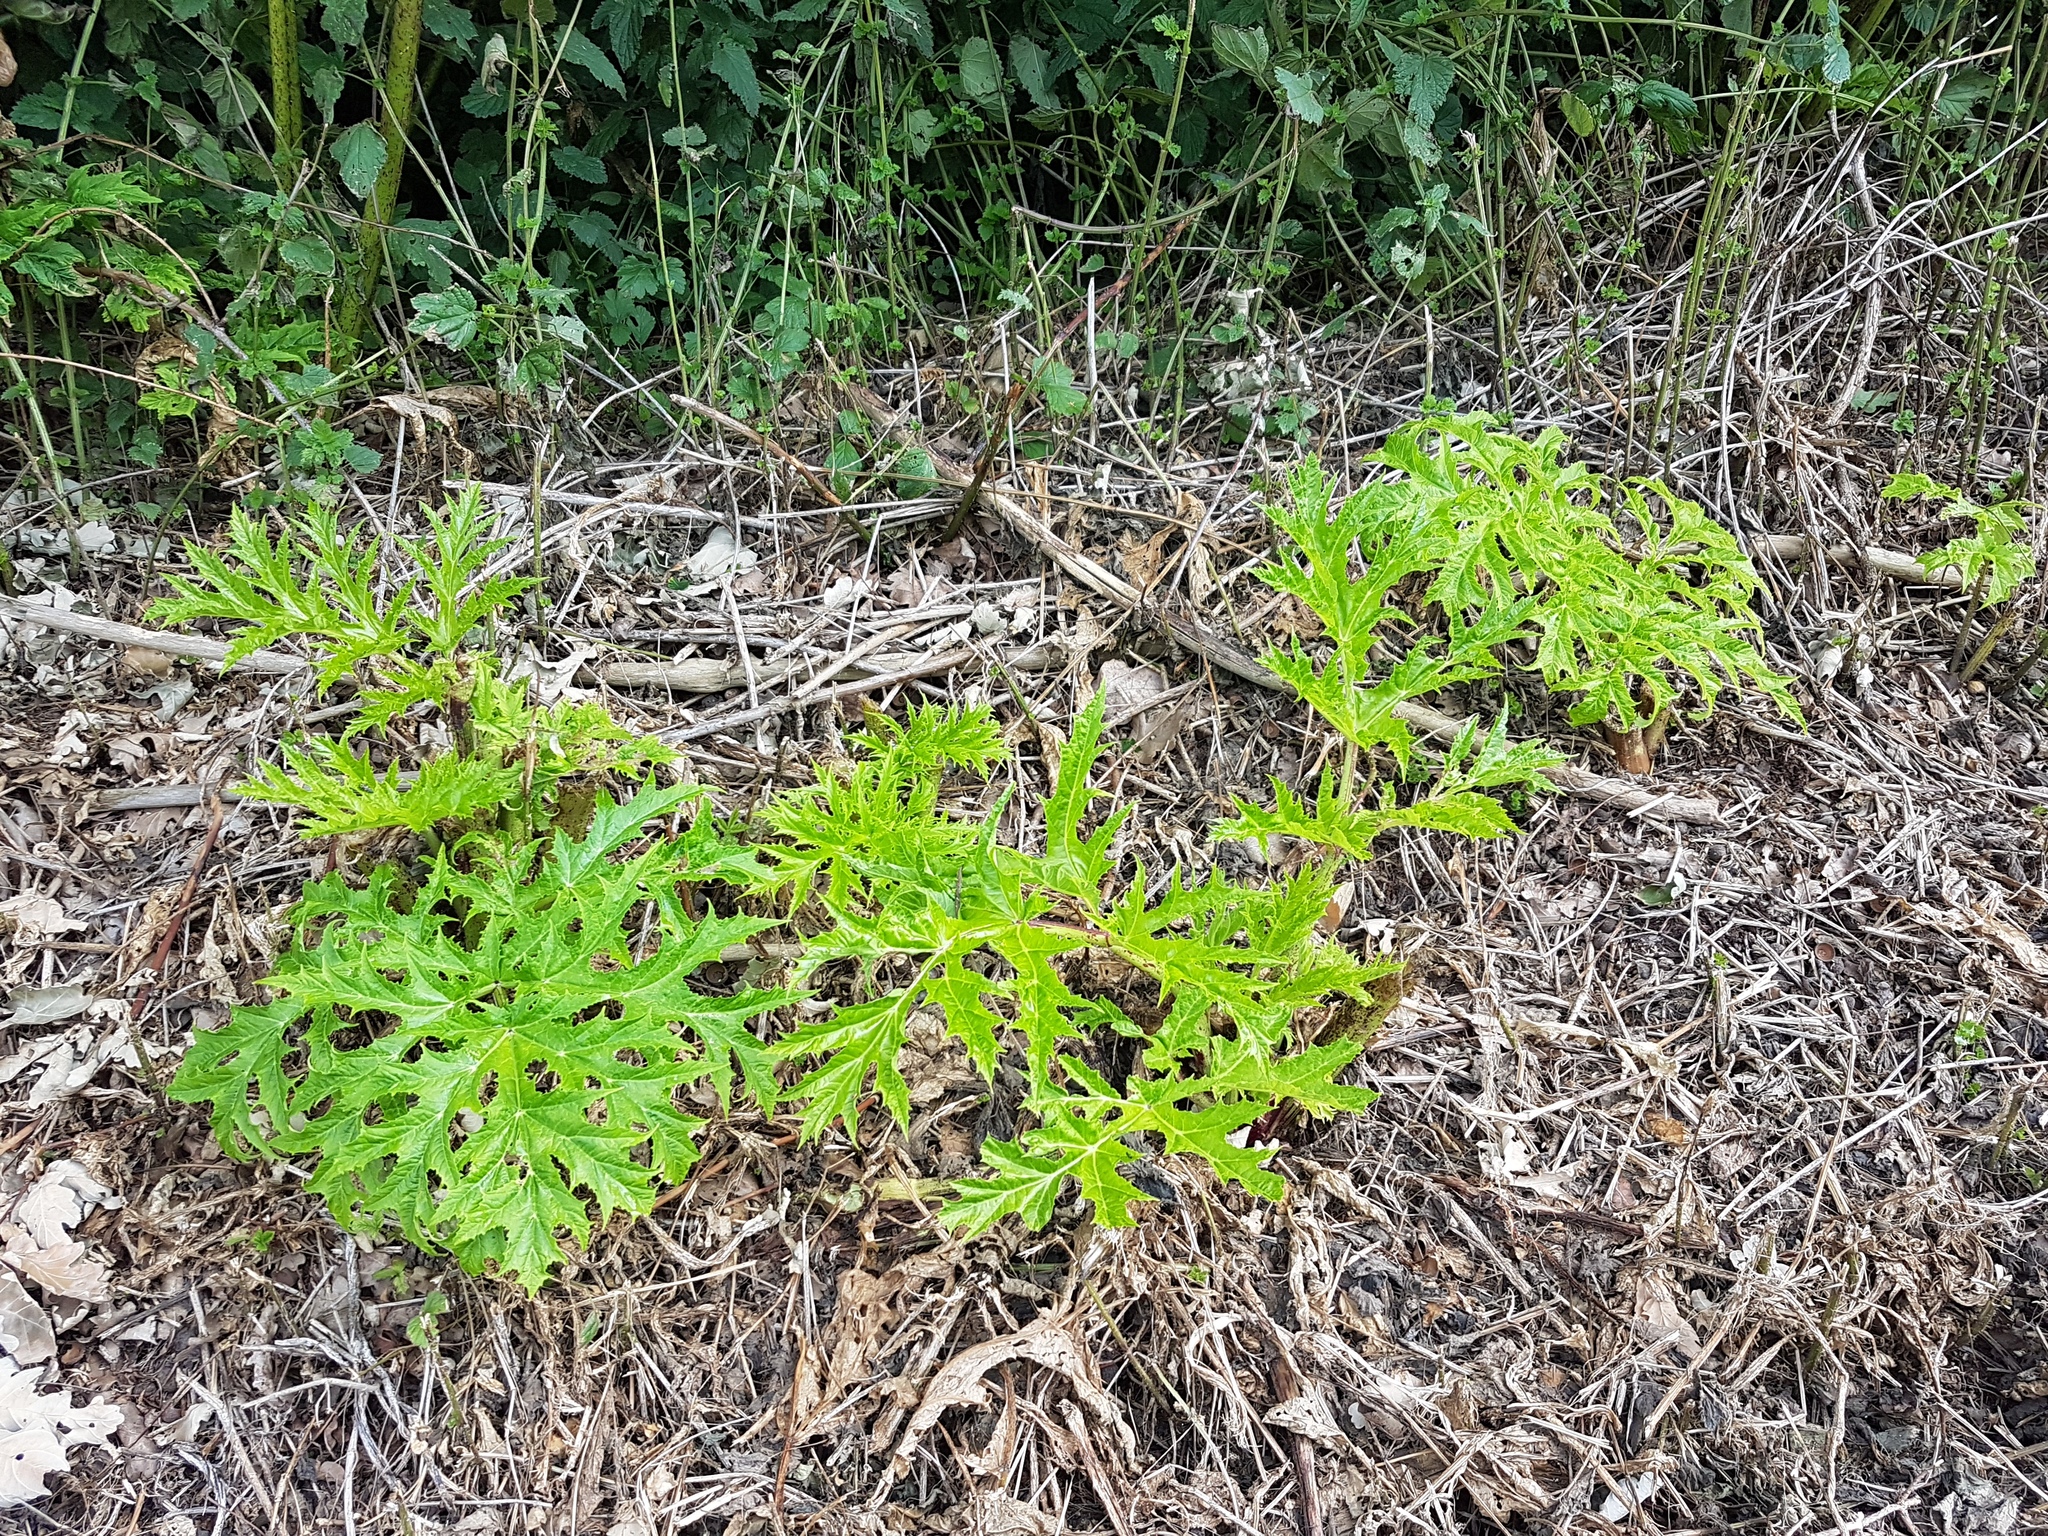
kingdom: Plantae
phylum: Tracheophyta
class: Magnoliopsida
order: Apiales
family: Apiaceae
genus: Heracleum
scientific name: Heracleum mantegazzianum
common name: Giant hogweed
